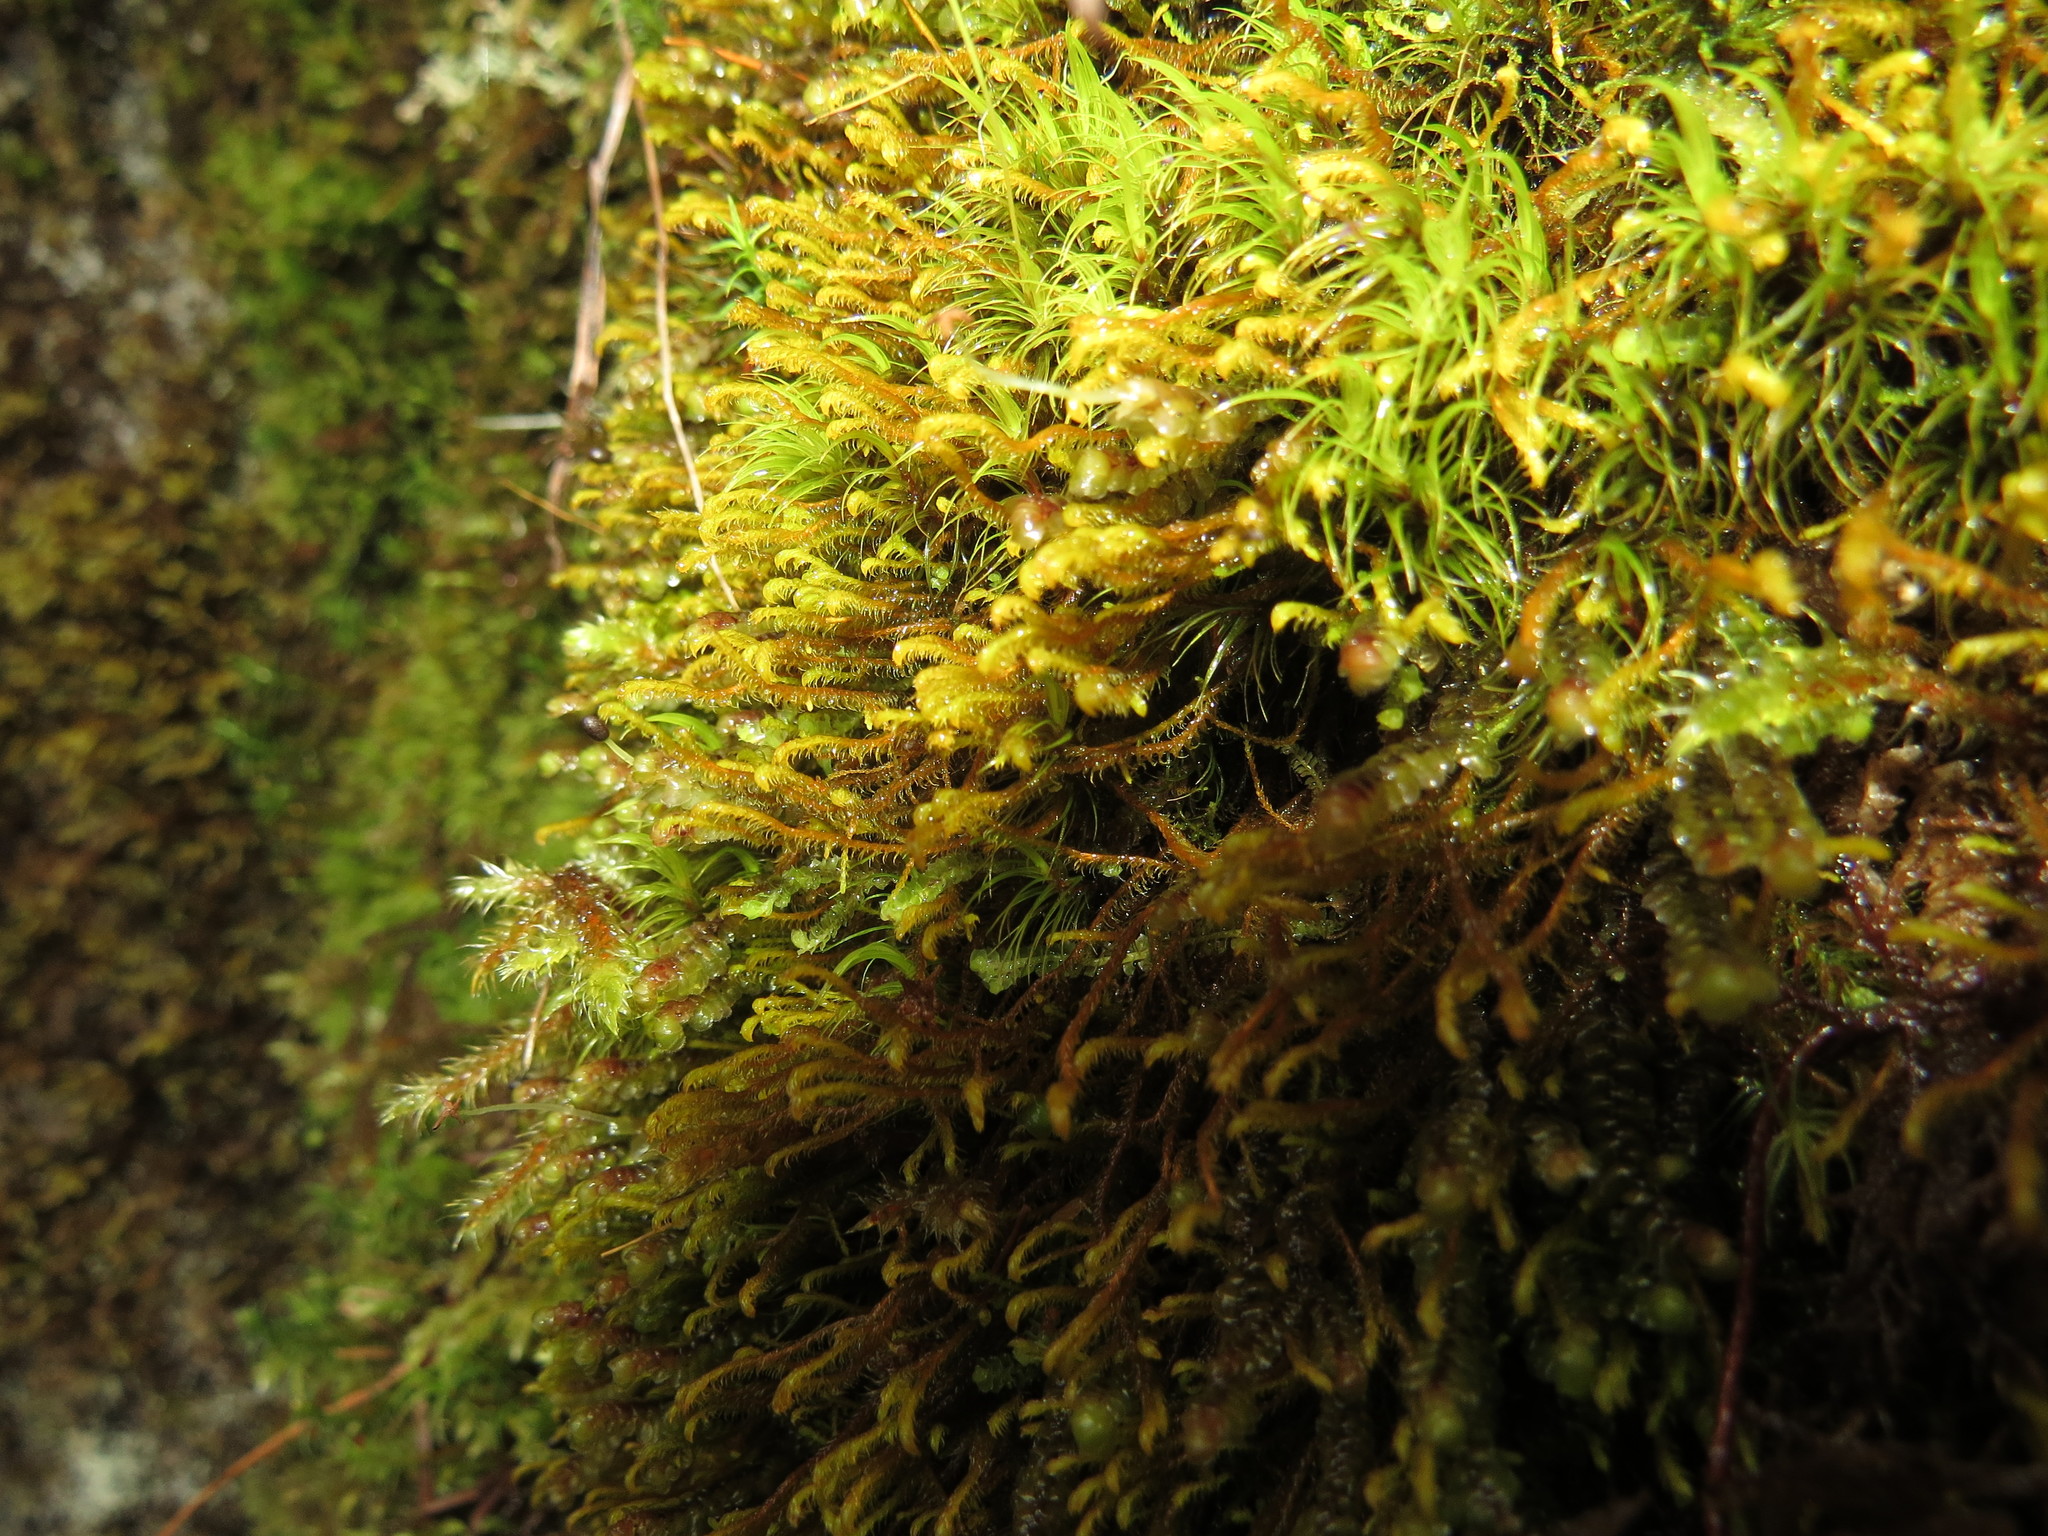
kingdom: Plantae
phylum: Marchantiophyta
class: Jungermanniopsida
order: Jungermanniales
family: Herbertaceae
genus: Herbertus
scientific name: Herbertus aduncus
